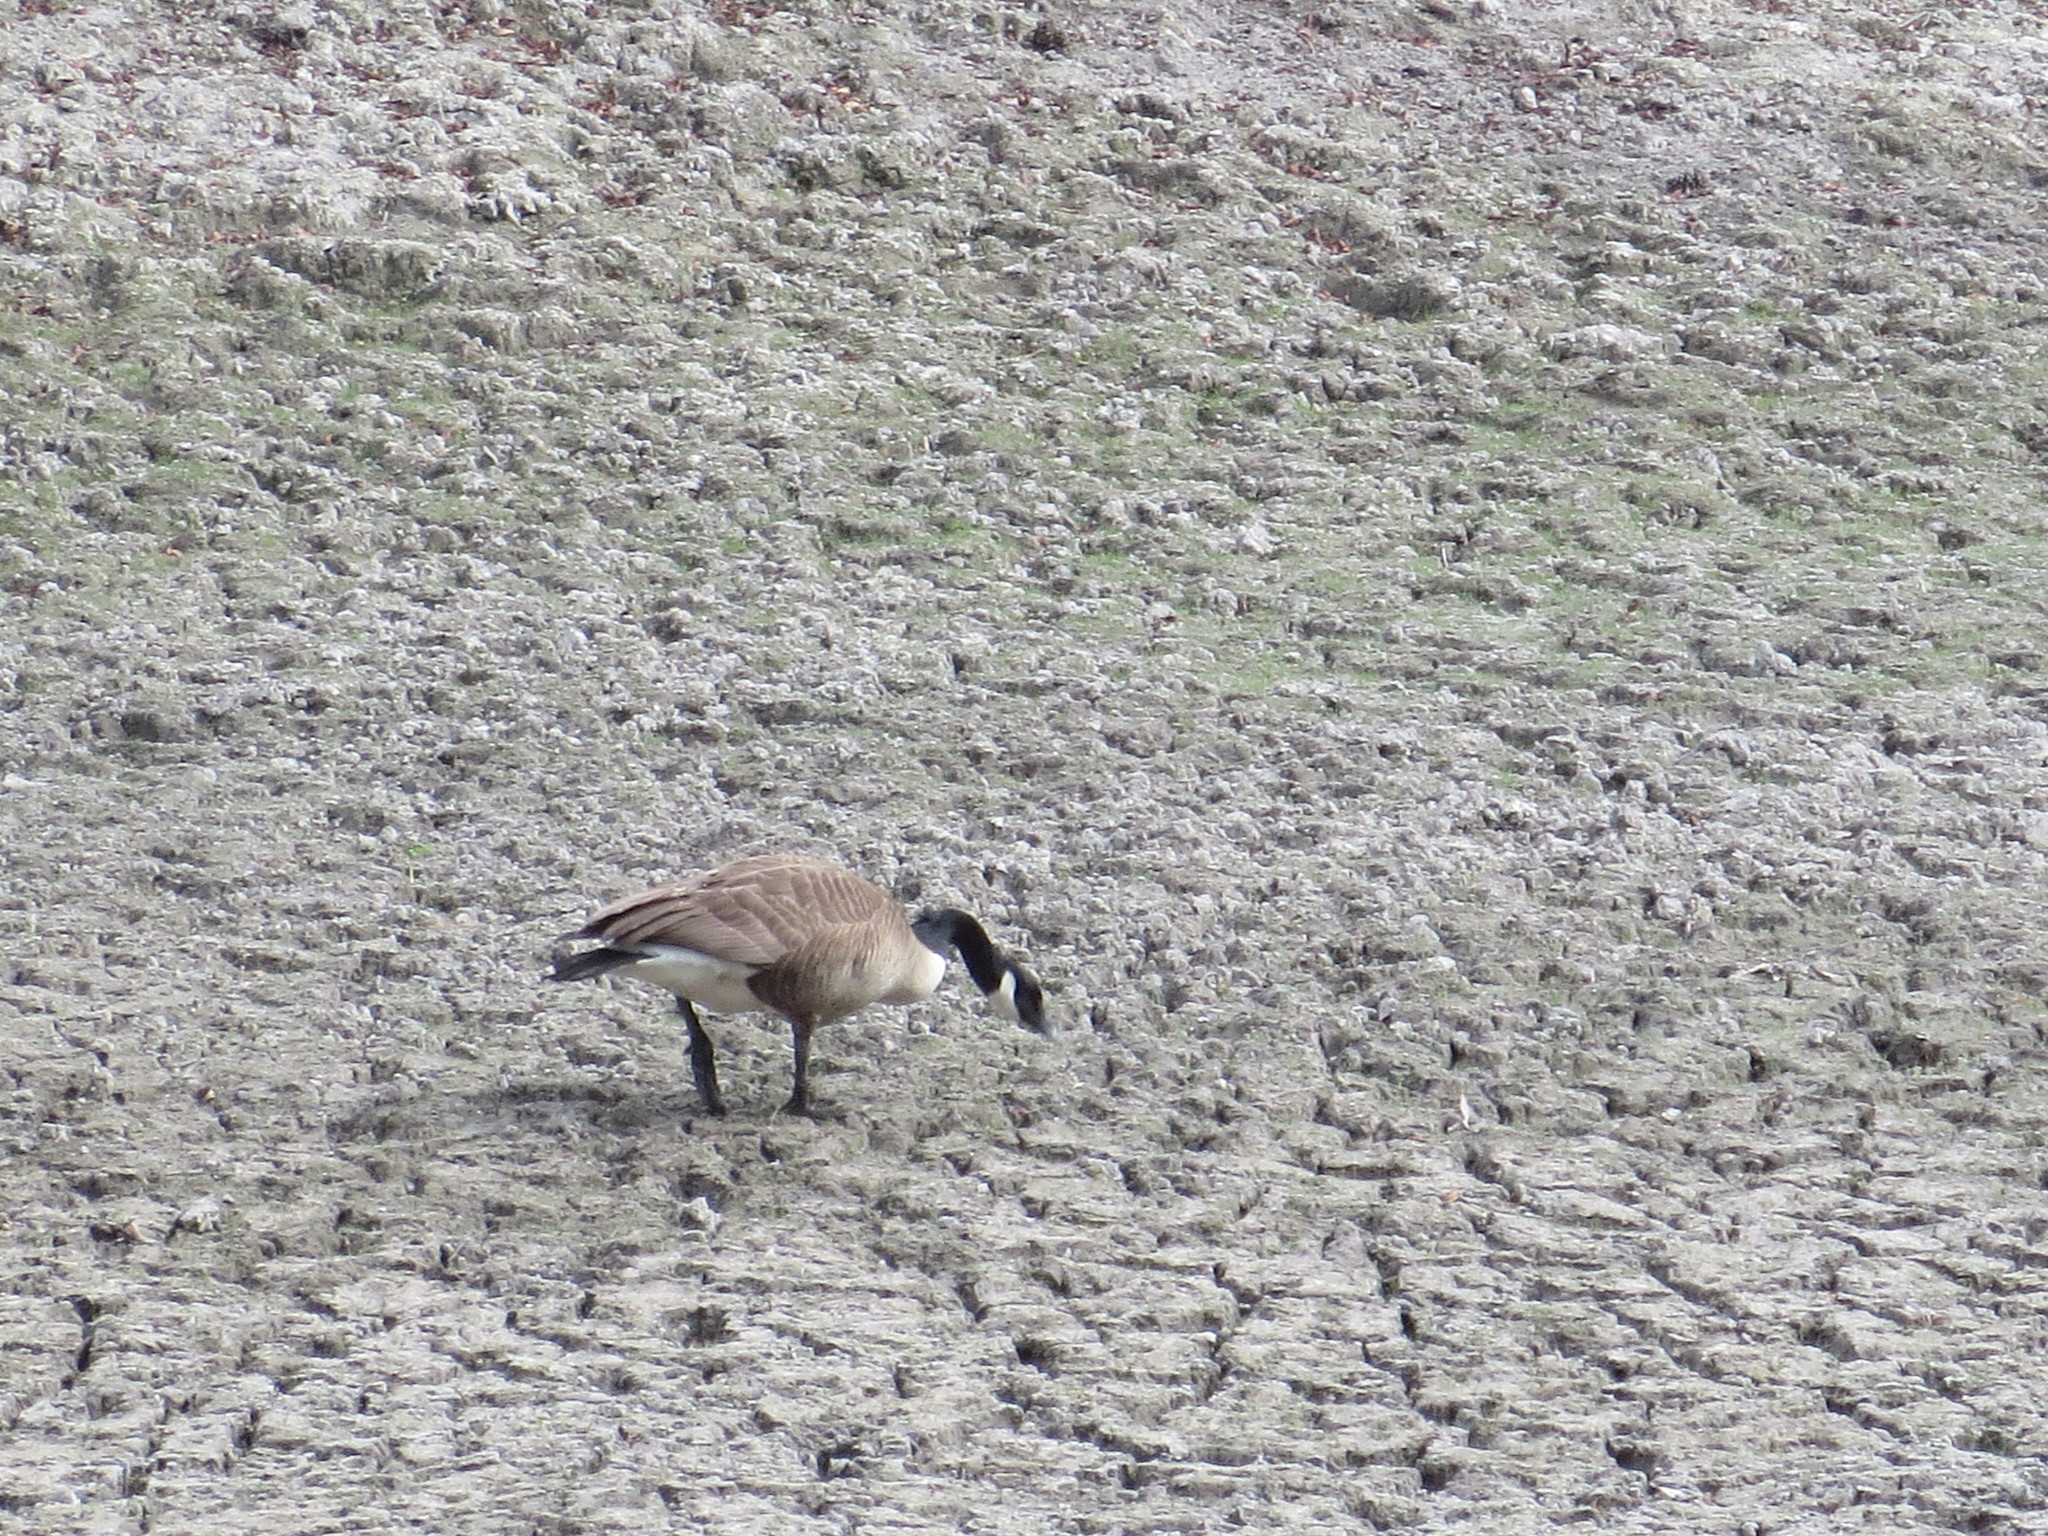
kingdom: Animalia
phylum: Chordata
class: Aves
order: Anseriformes
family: Anatidae
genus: Branta
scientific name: Branta canadensis
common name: Canada goose
